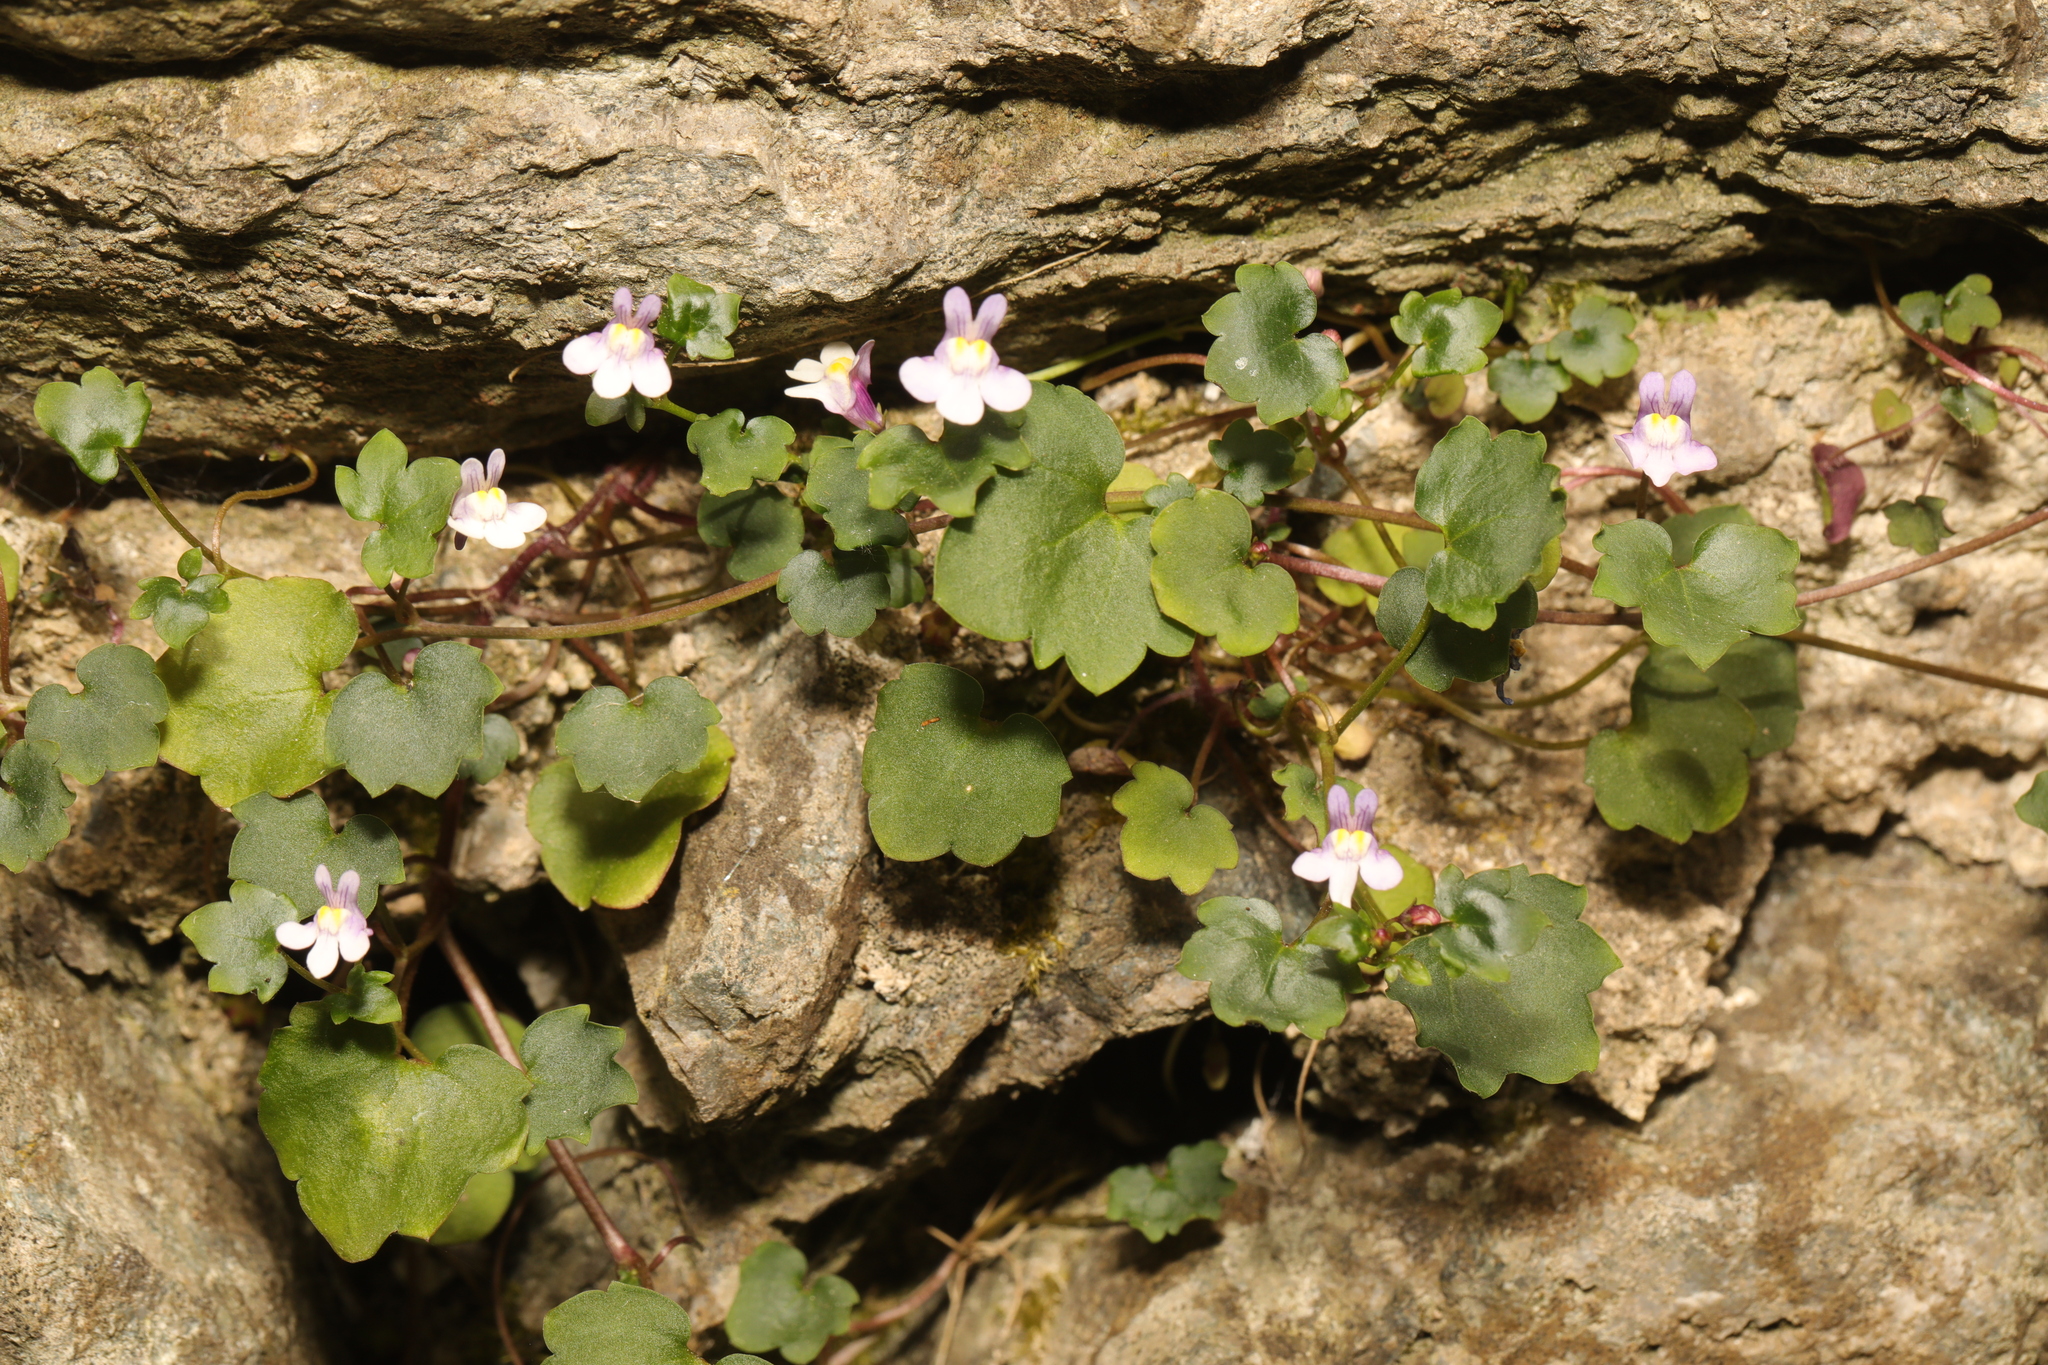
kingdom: Plantae
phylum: Tracheophyta
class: Magnoliopsida
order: Lamiales
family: Plantaginaceae
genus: Cymbalaria
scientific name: Cymbalaria muralis
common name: Ivy-leaved toadflax
